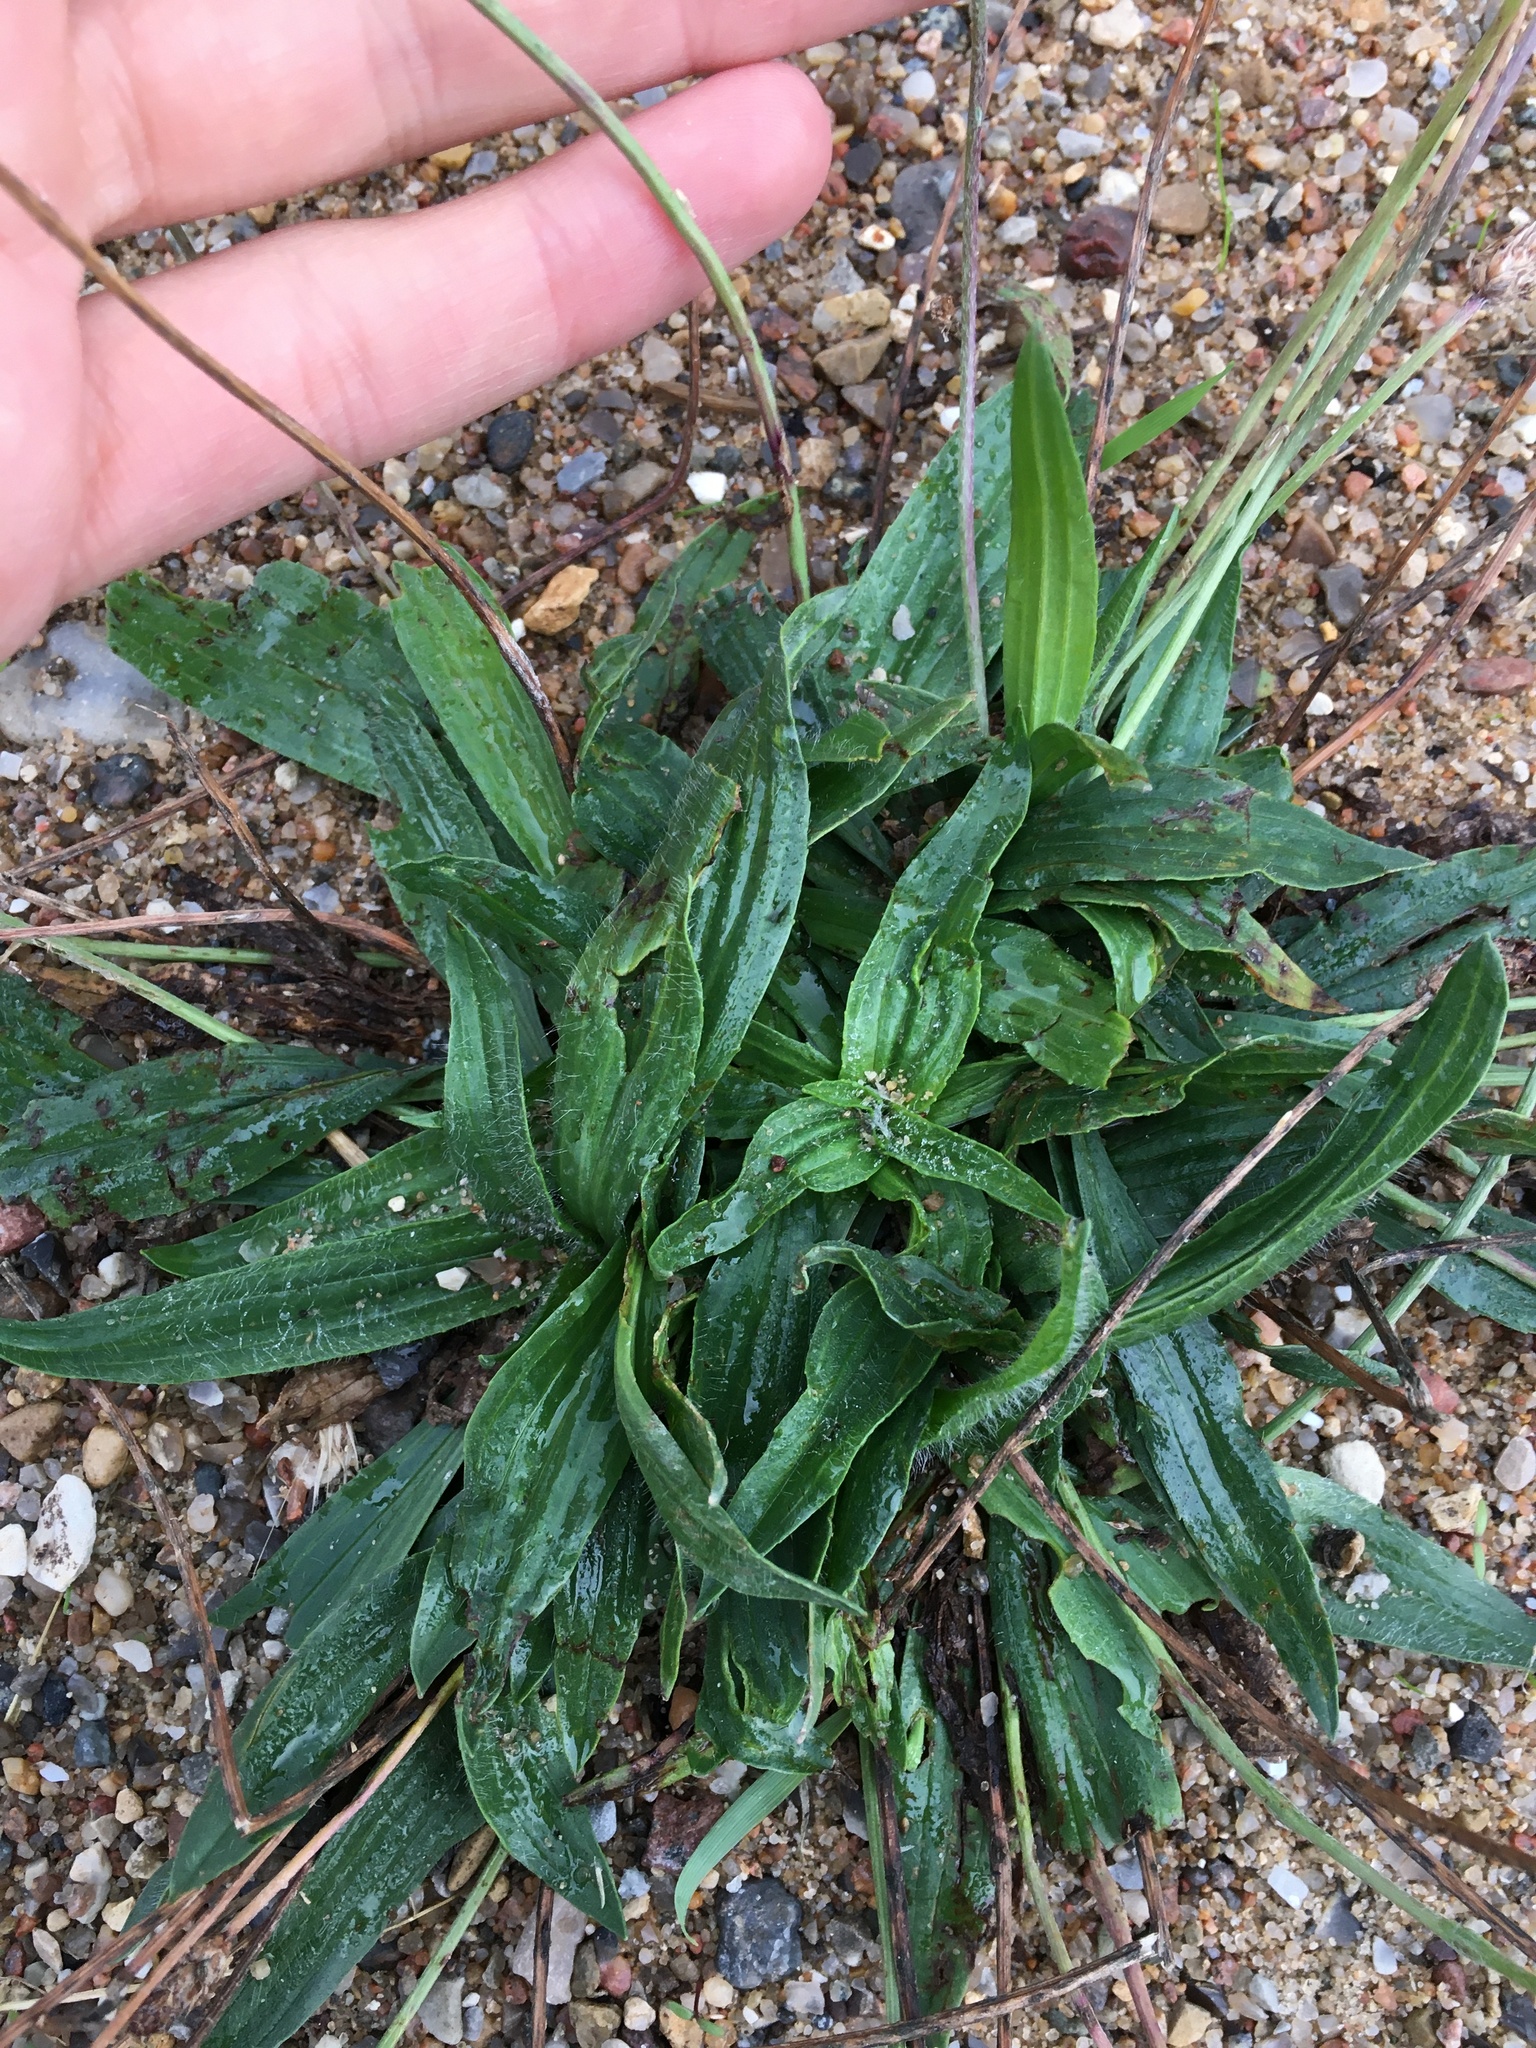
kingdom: Plantae
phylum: Tracheophyta
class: Magnoliopsida
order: Lamiales
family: Plantaginaceae
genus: Plantago
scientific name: Plantago lanceolata
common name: Ribwort plantain
